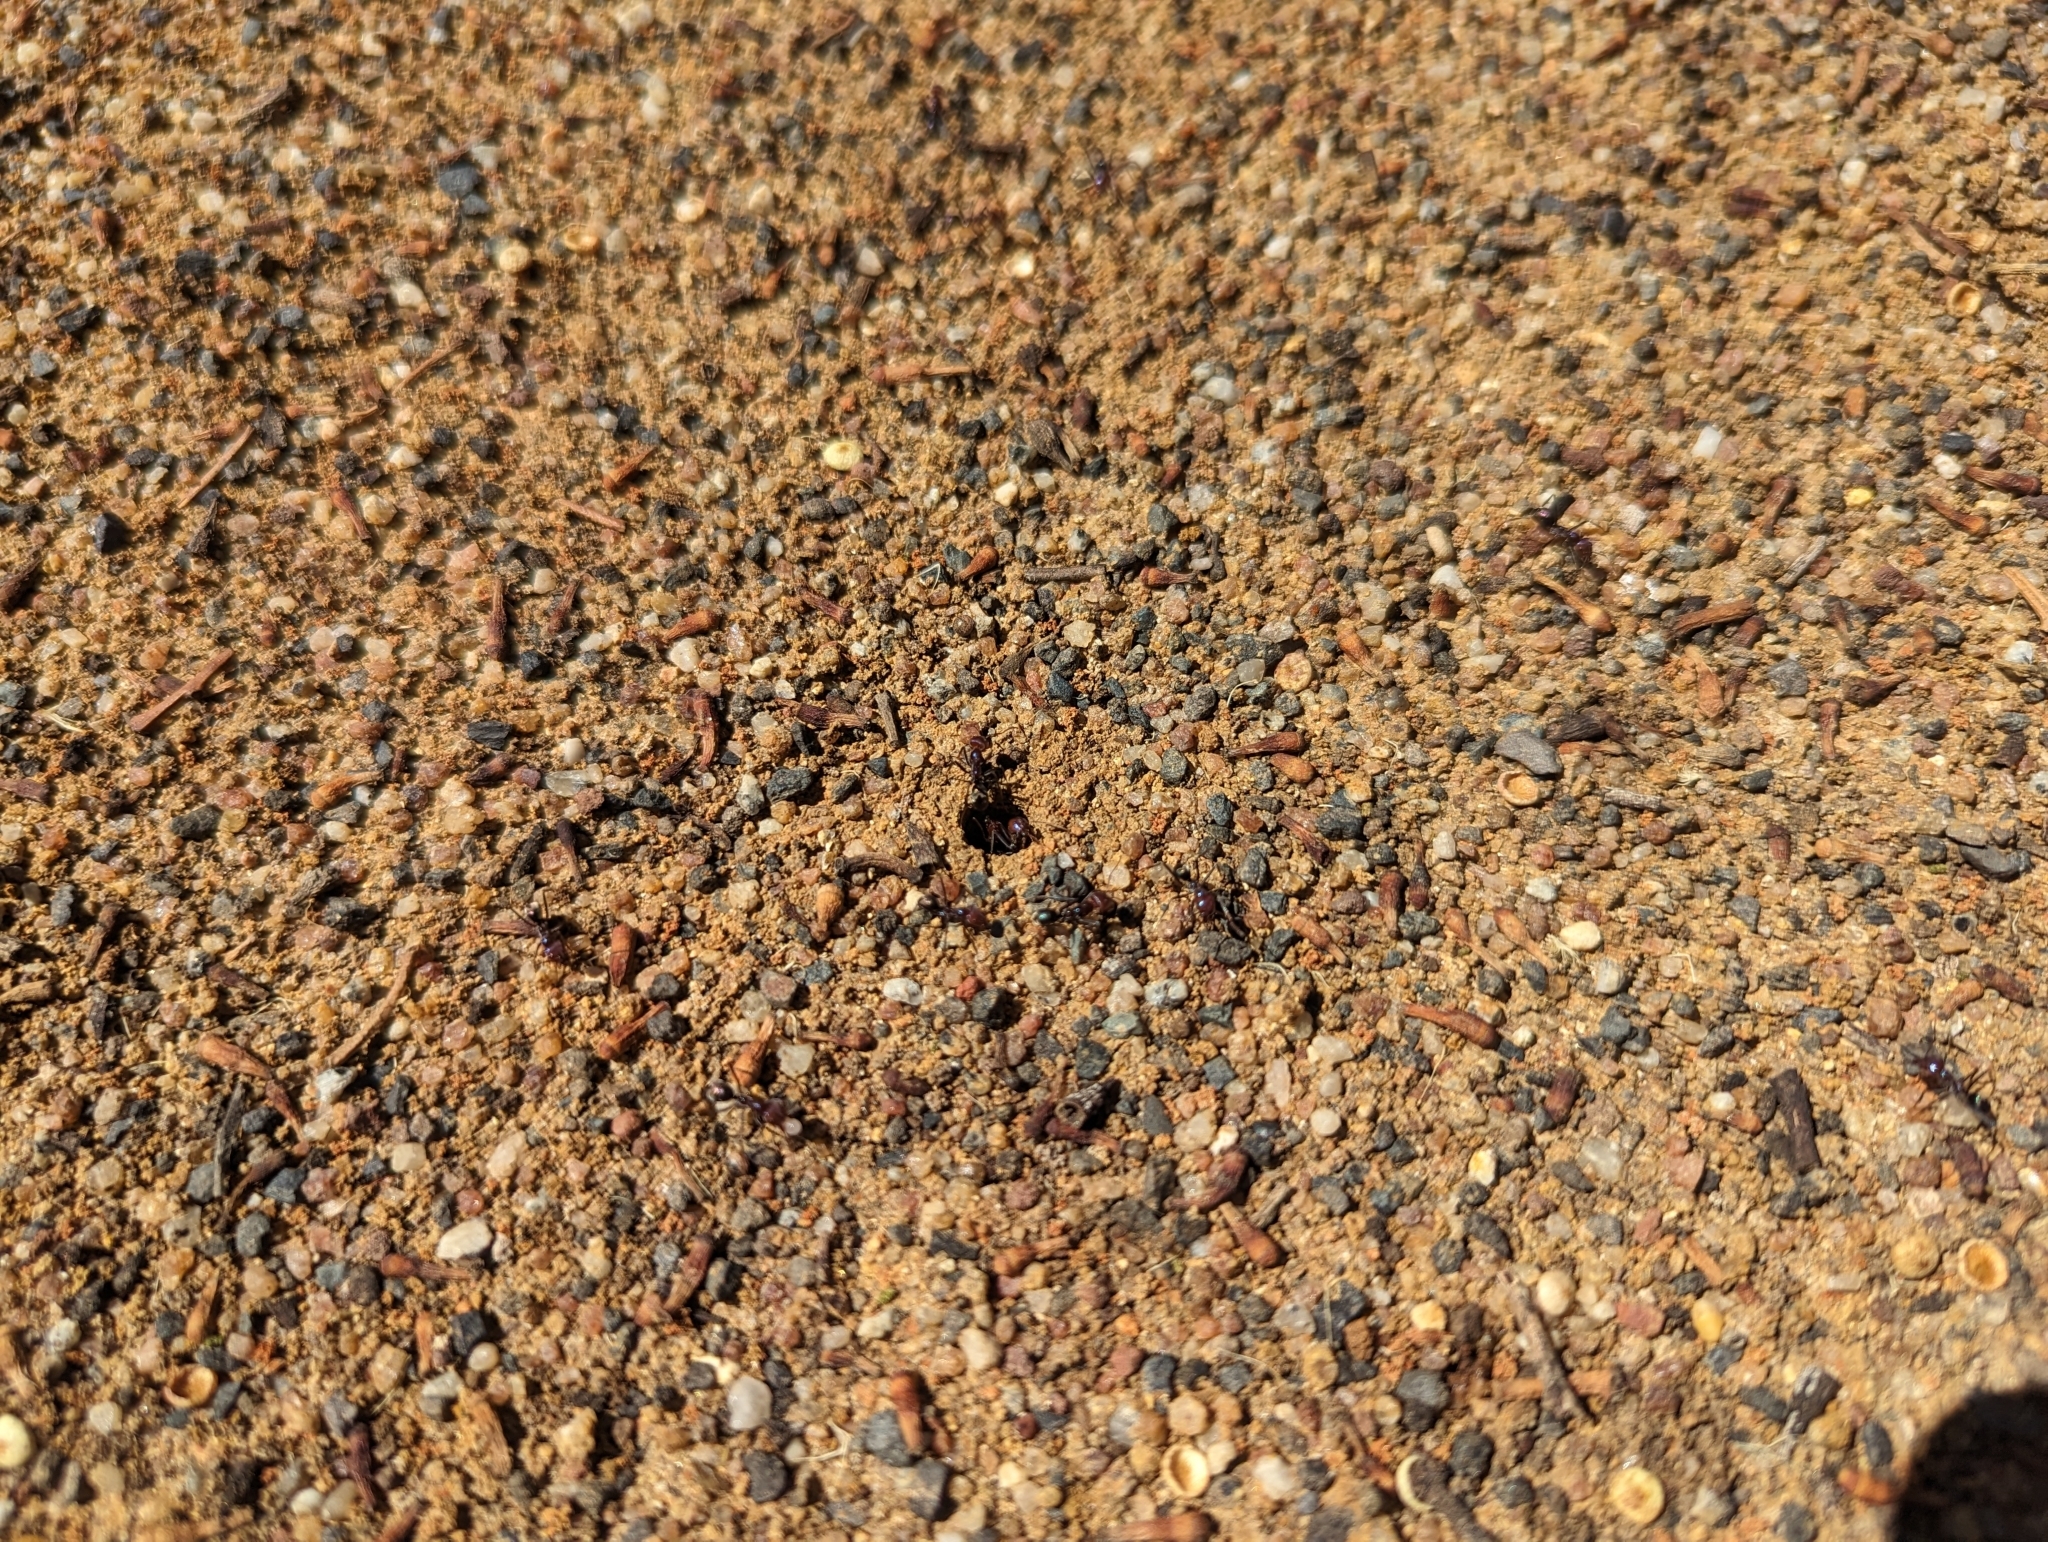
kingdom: Animalia
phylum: Arthropoda
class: Insecta
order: Hymenoptera
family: Formicidae
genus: Iridomyrmex
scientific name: Iridomyrmex purpureus
